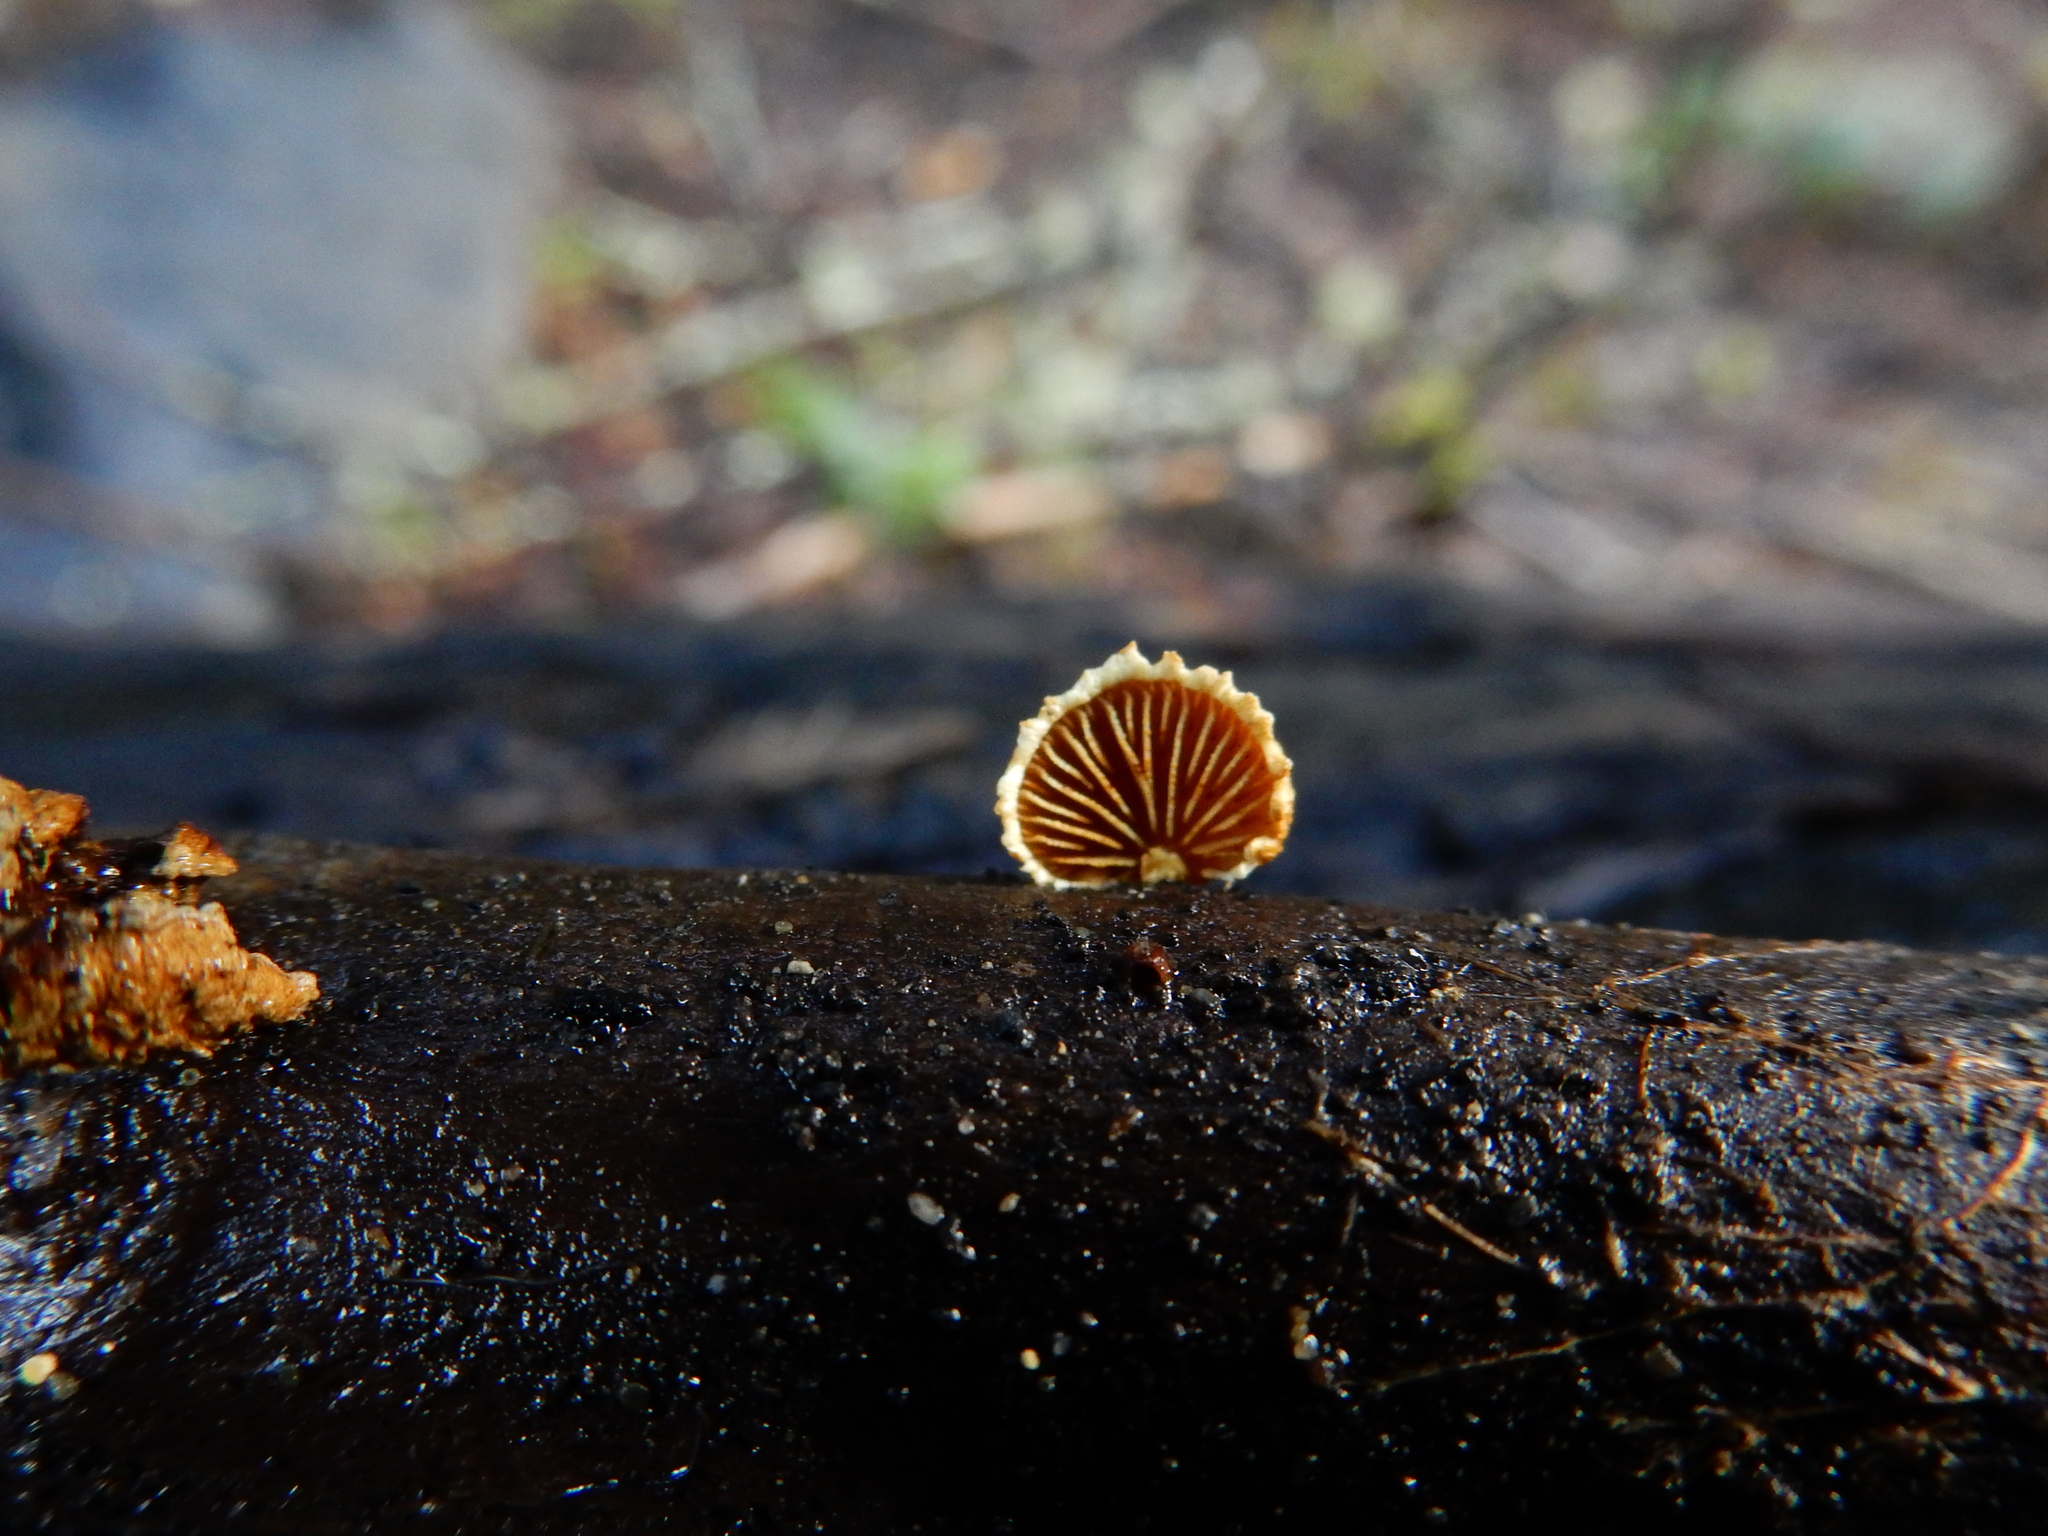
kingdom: Fungi
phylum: Basidiomycota
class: Agaricomycetes
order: Agaricales
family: Crepidotaceae
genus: Pleuroflammula
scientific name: Pleuroflammula praestans
